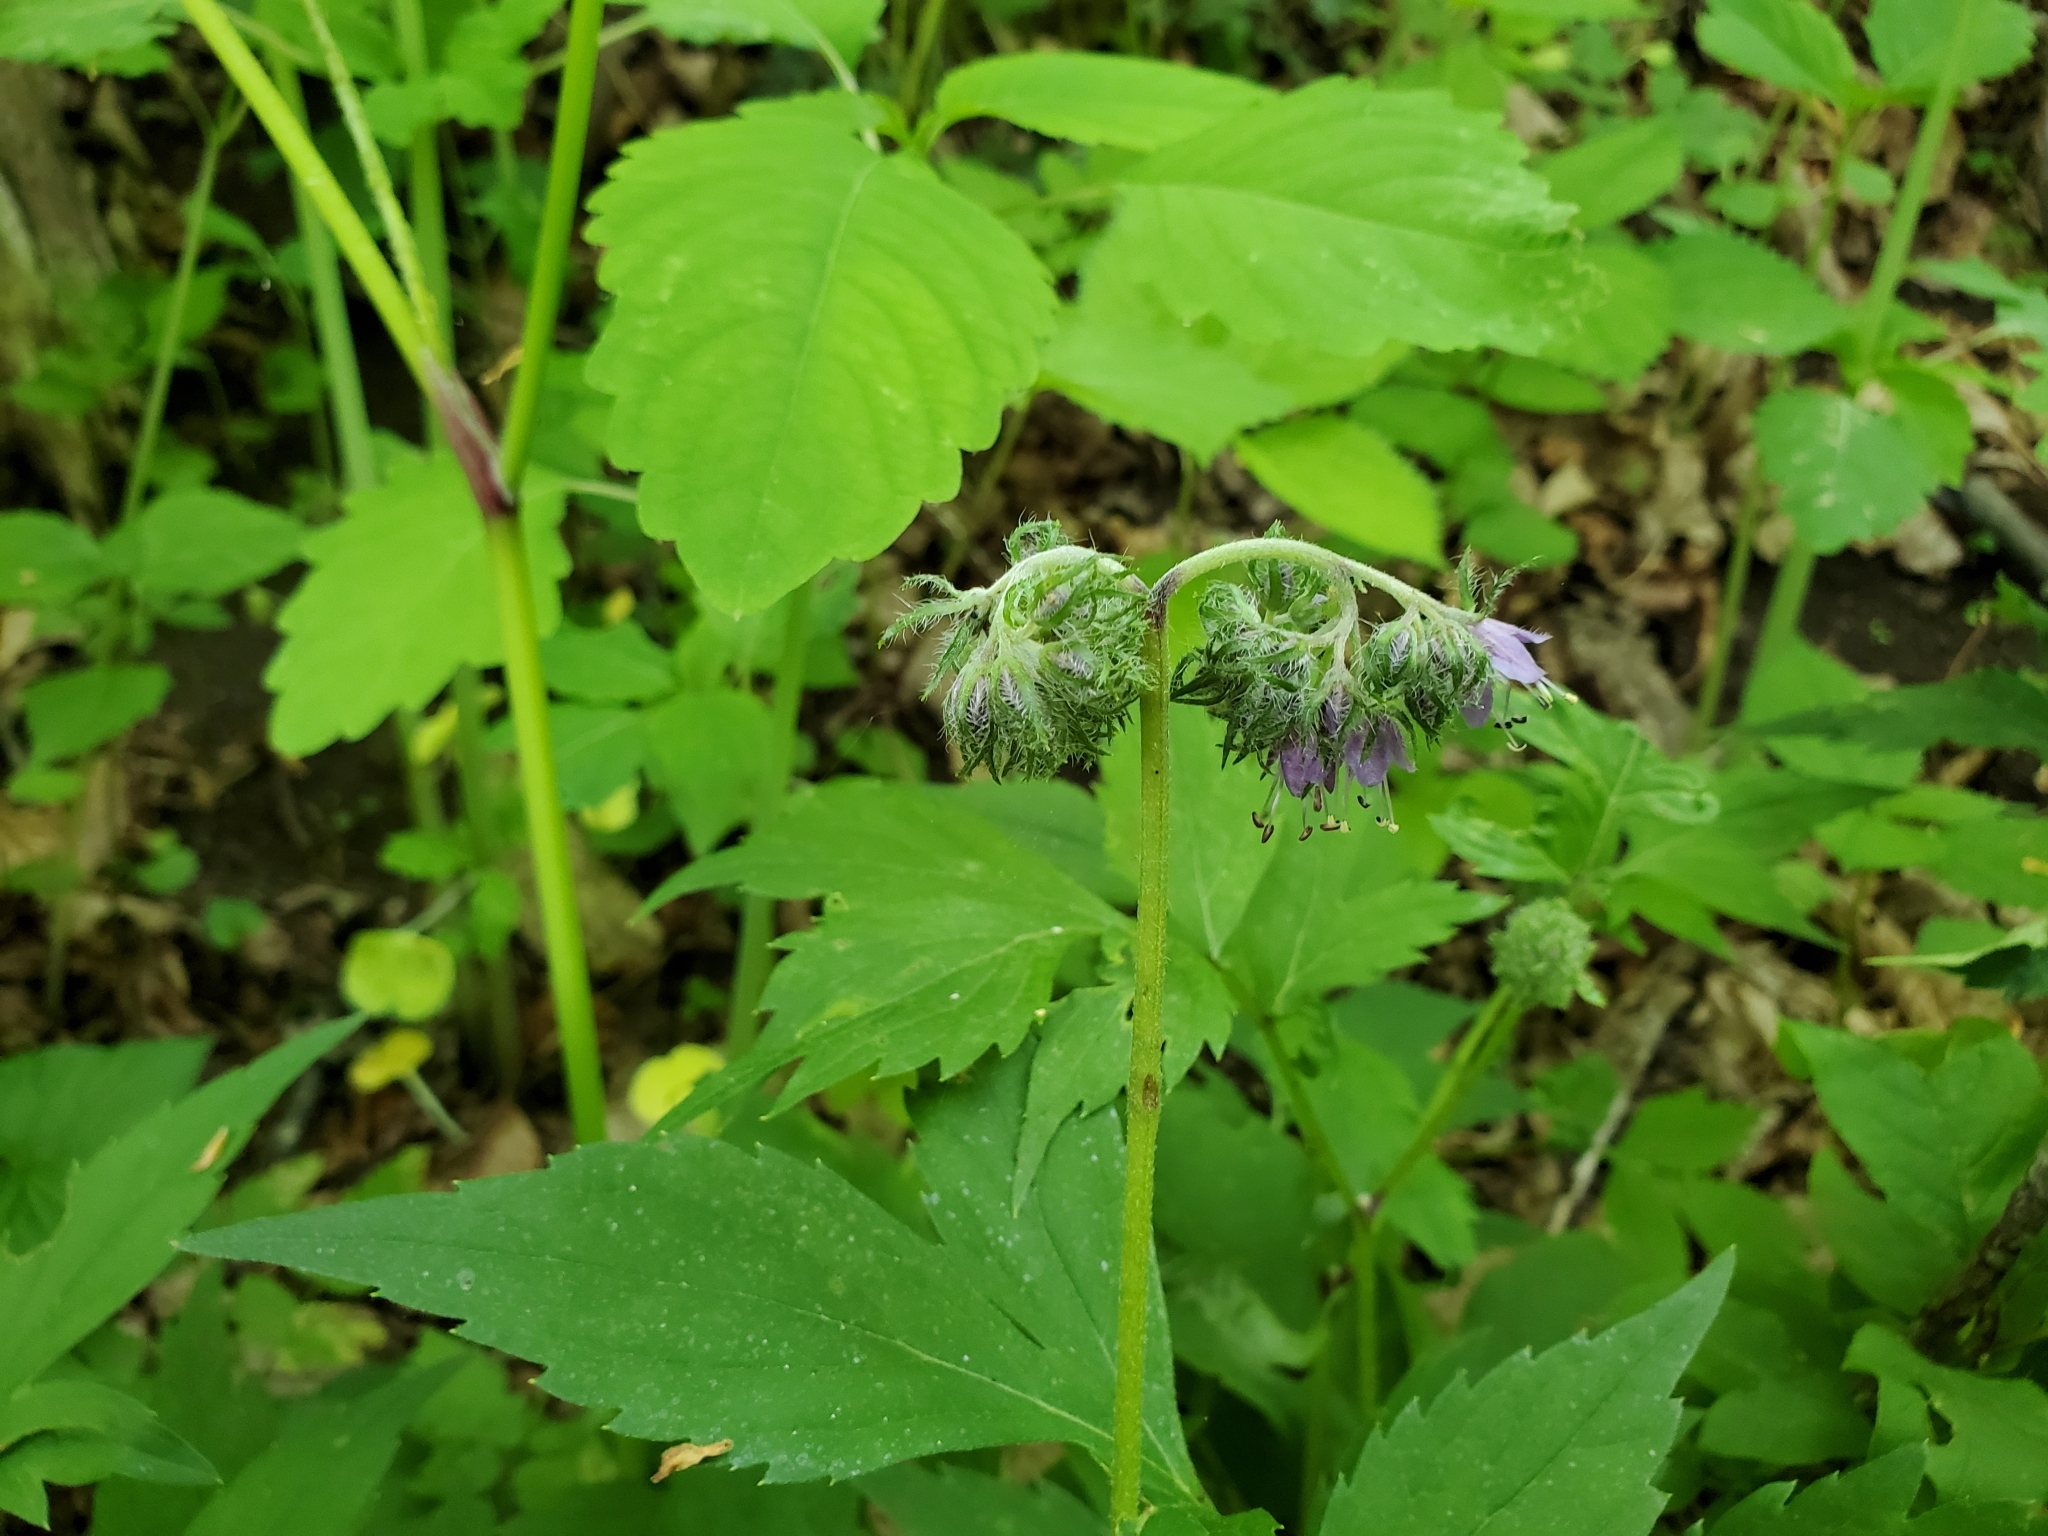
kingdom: Plantae
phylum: Tracheophyta
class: Magnoliopsida
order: Boraginales
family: Hydrophyllaceae
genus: Hydrophyllum
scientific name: Hydrophyllum virginianum
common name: Virginia waterleaf
